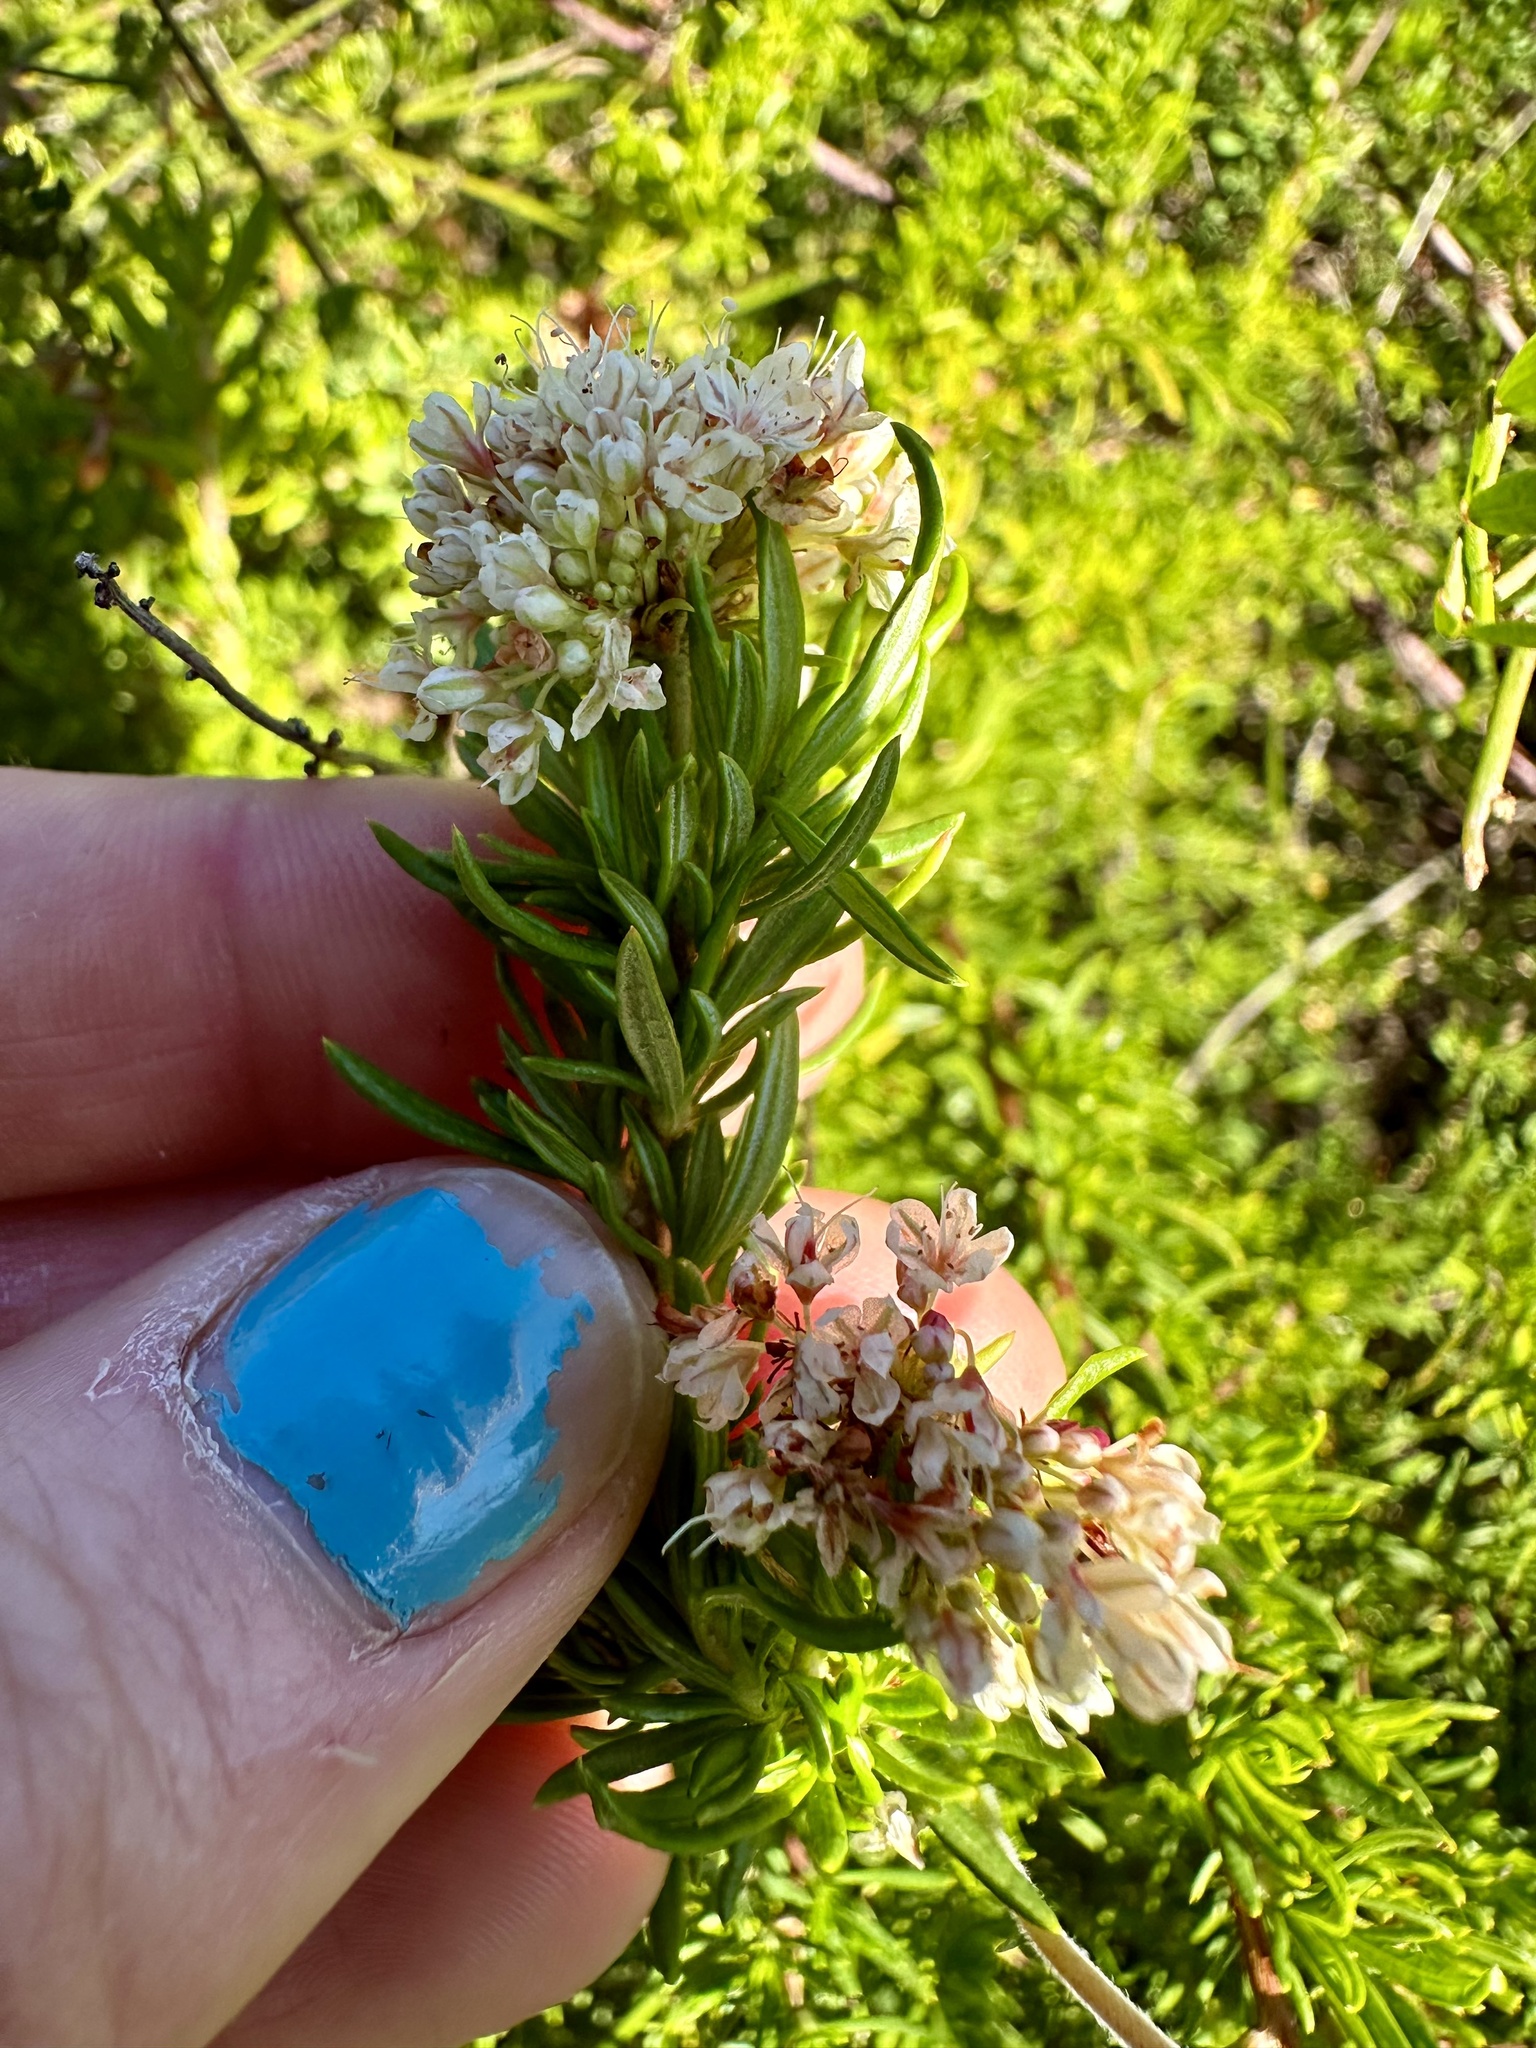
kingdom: Plantae
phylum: Tracheophyta
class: Magnoliopsida
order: Caryophyllales
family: Polygonaceae
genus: Eriogonum
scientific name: Eriogonum fasciculatum
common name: California wild buckwheat
